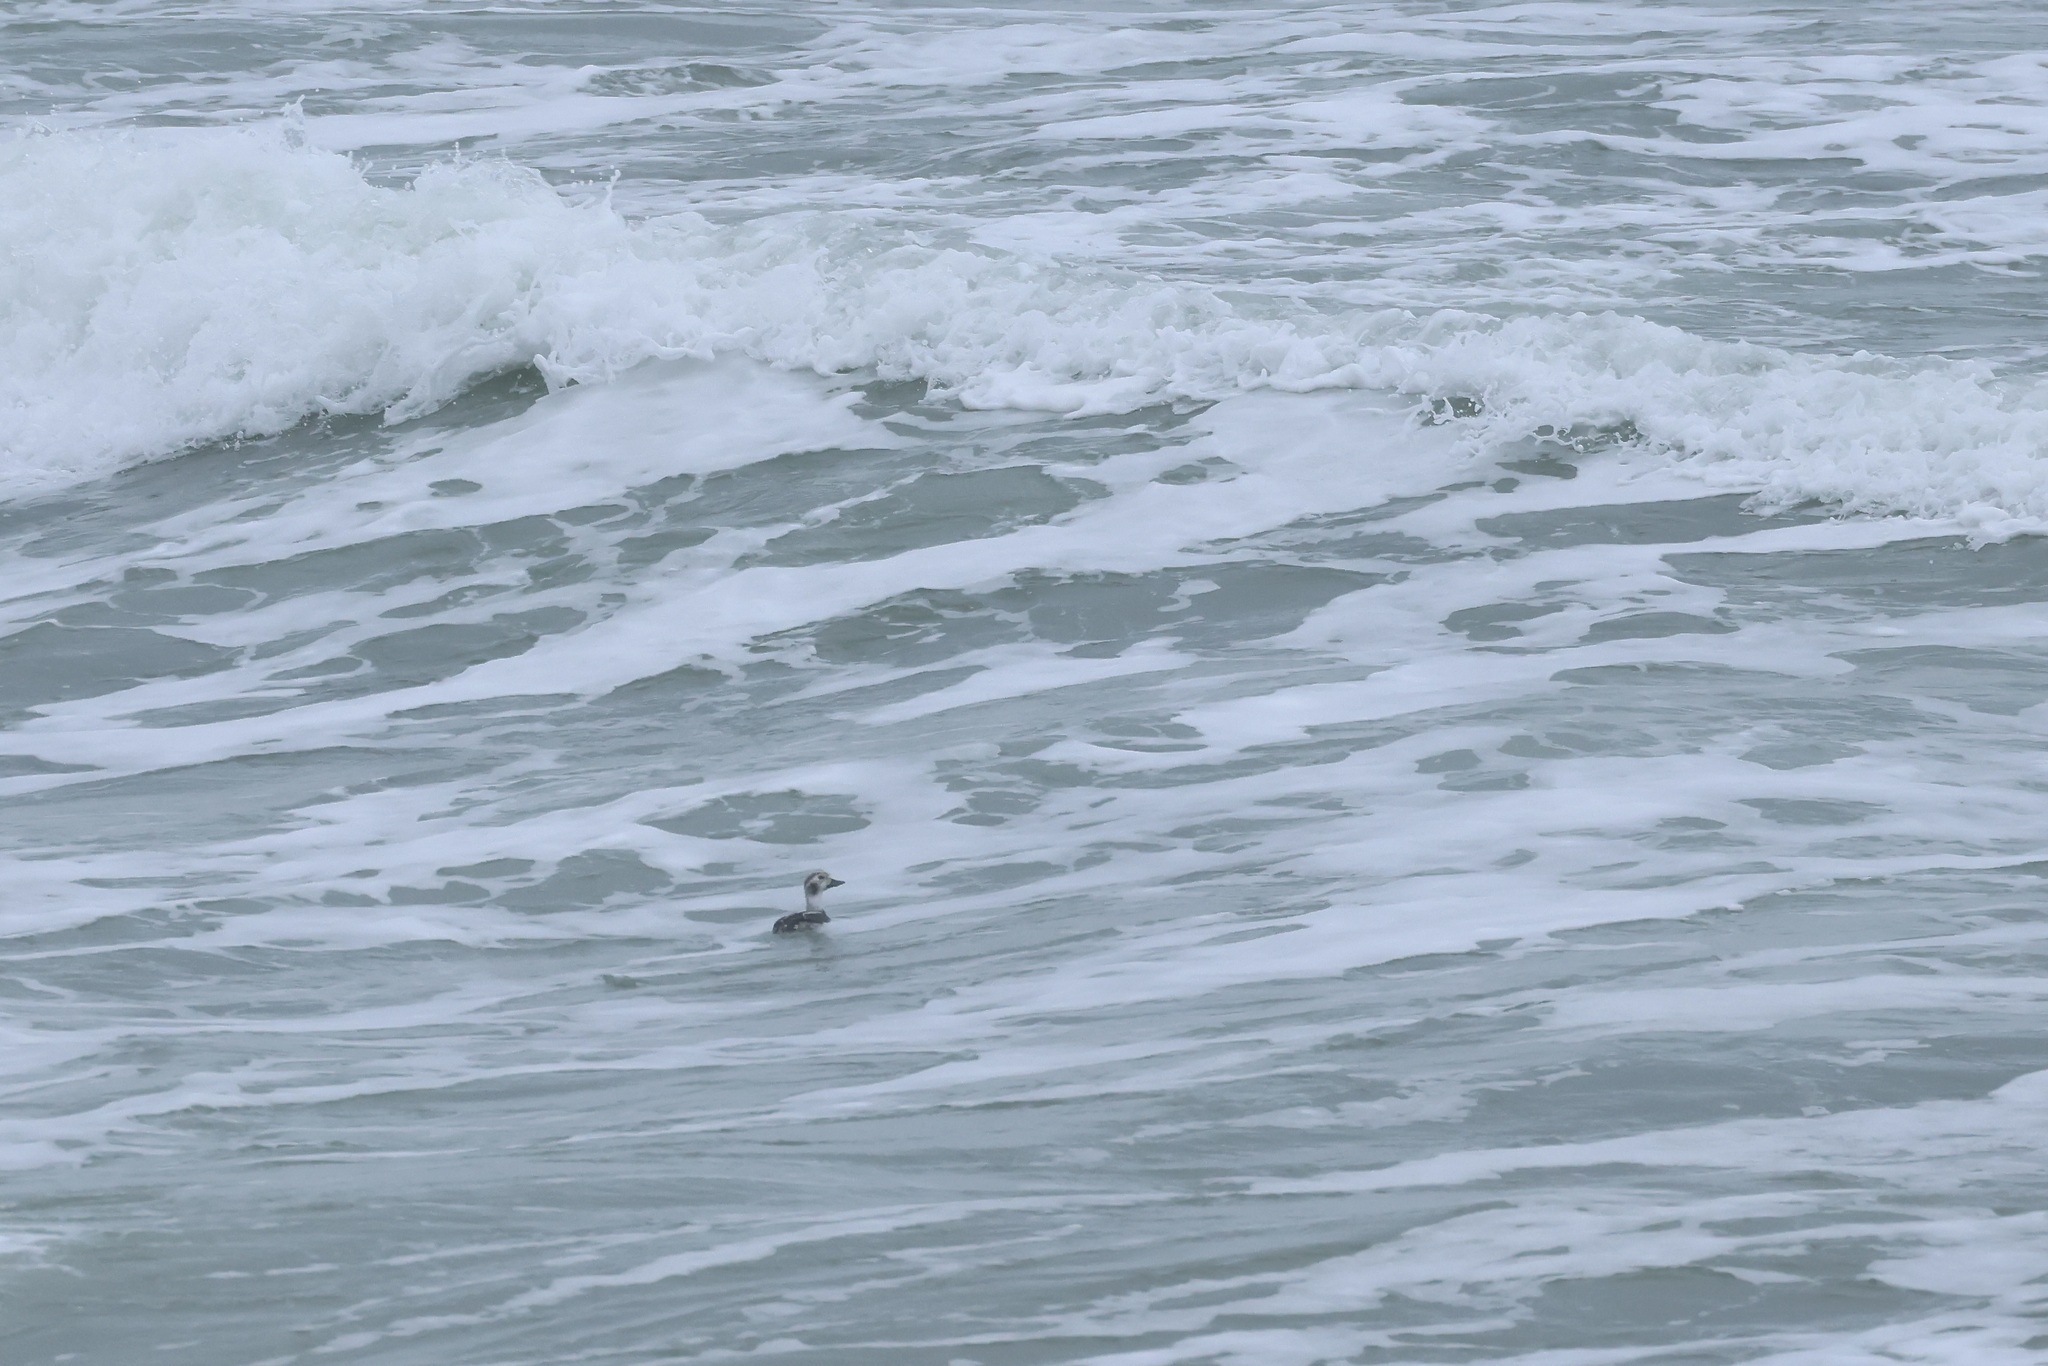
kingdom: Animalia
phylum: Chordata
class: Aves
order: Anseriformes
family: Anatidae
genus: Clangula
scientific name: Clangula hyemalis
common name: Long-tailed duck
